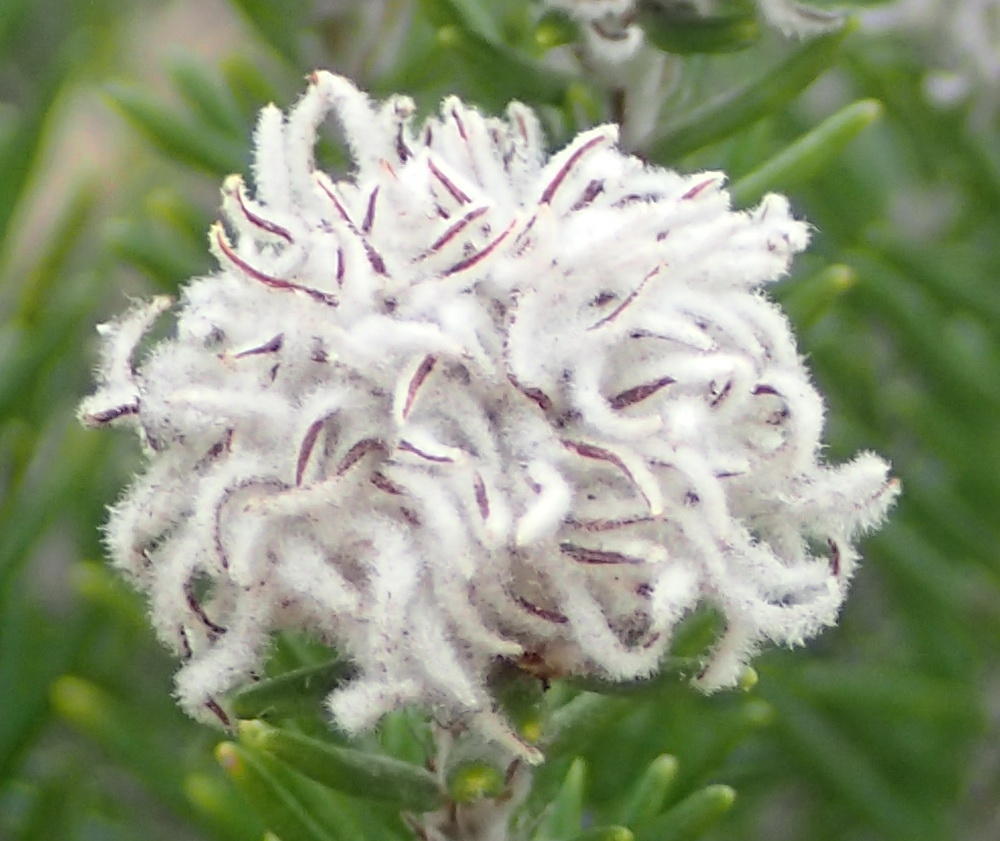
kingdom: Plantae
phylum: Tracheophyta
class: Magnoliopsida
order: Rosales
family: Rhamnaceae
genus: Trichocephalus
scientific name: Trichocephalus stipularis
